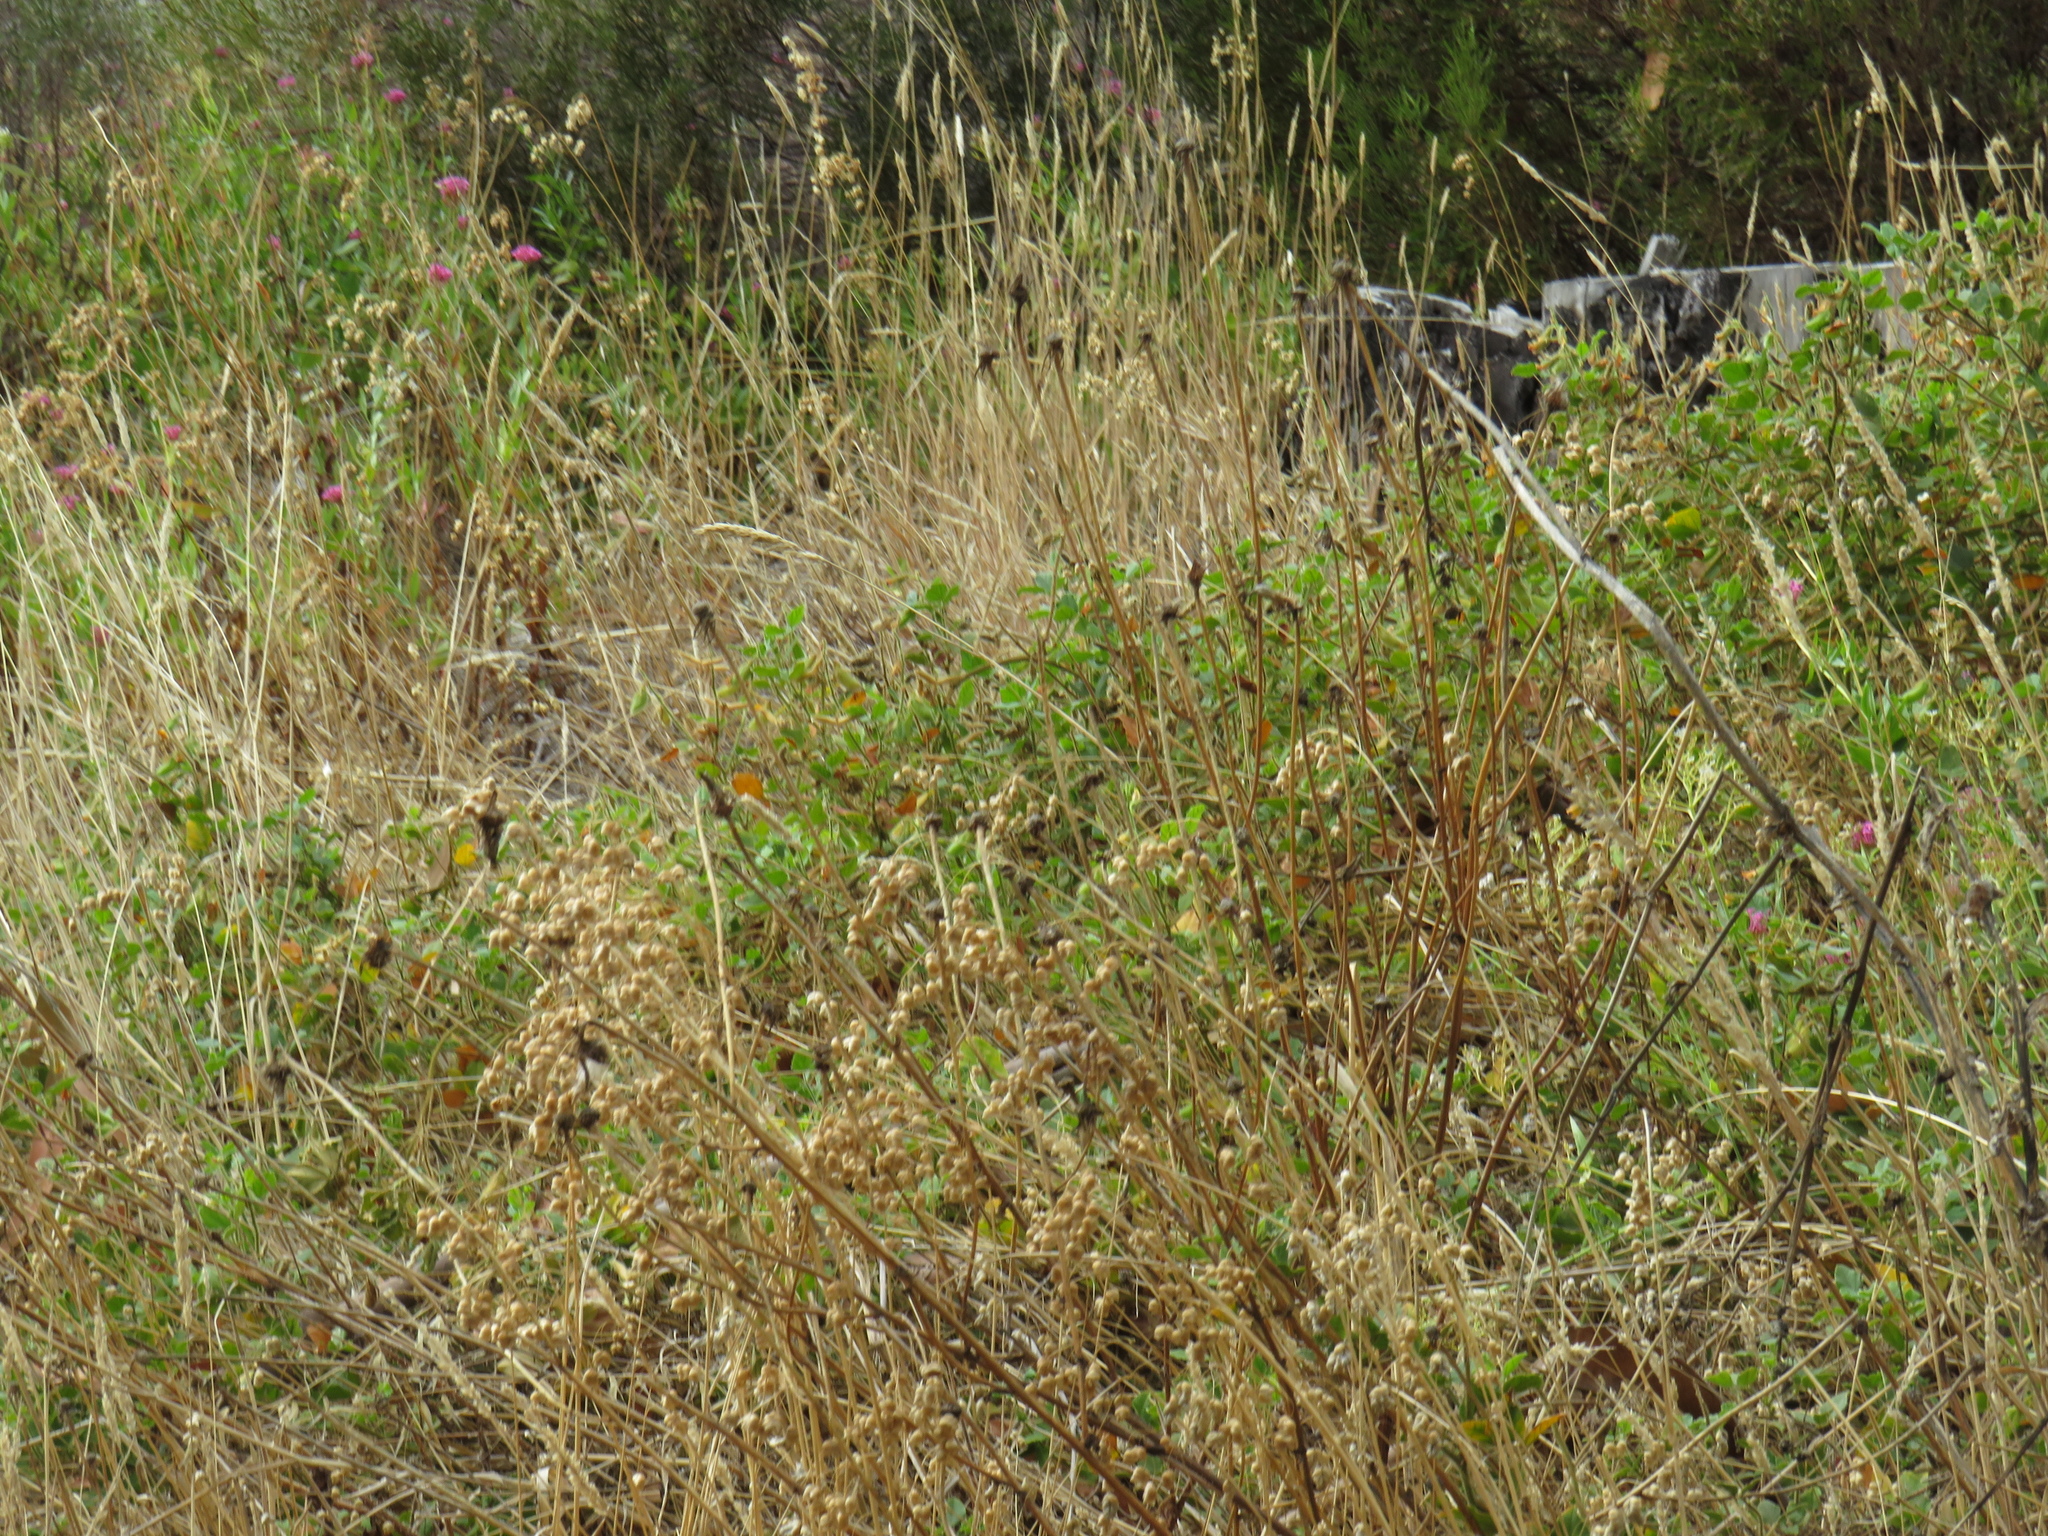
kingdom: Plantae
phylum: Tracheophyta
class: Magnoliopsida
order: Dipsacales
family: Caprifoliaceae
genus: Centranthus
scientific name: Centranthus ruber
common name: Red valerian
